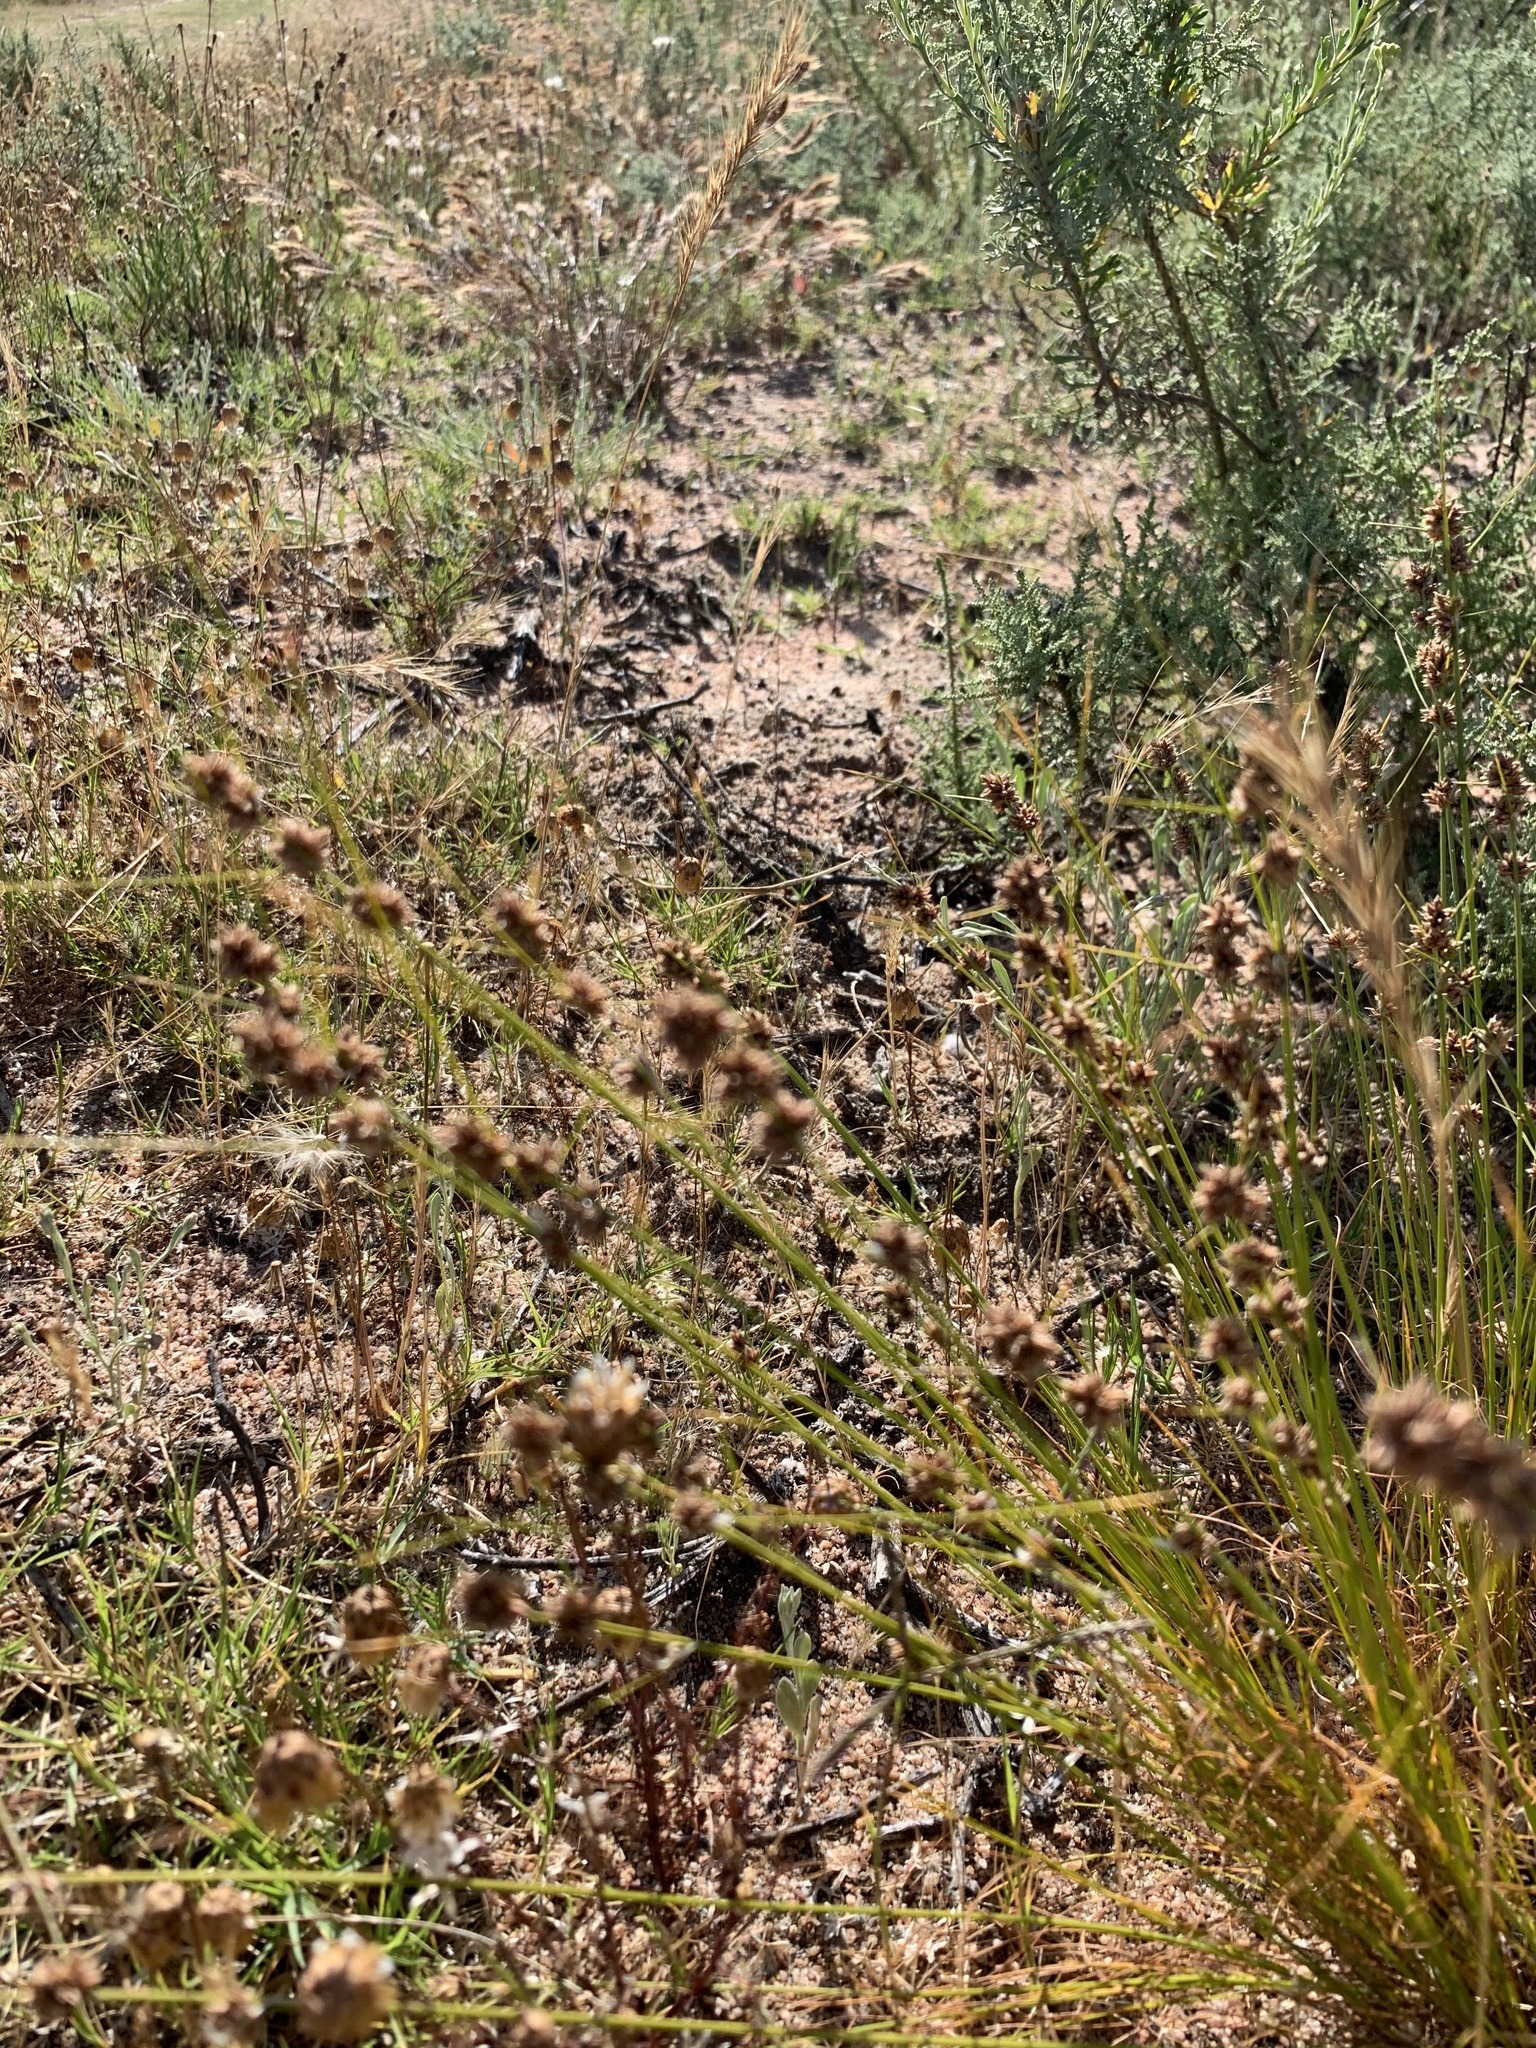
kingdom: Plantae
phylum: Tracheophyta
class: Liliopsida
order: Poales
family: Cyperaceae
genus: Ficinia
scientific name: Ficinia bulbosa
